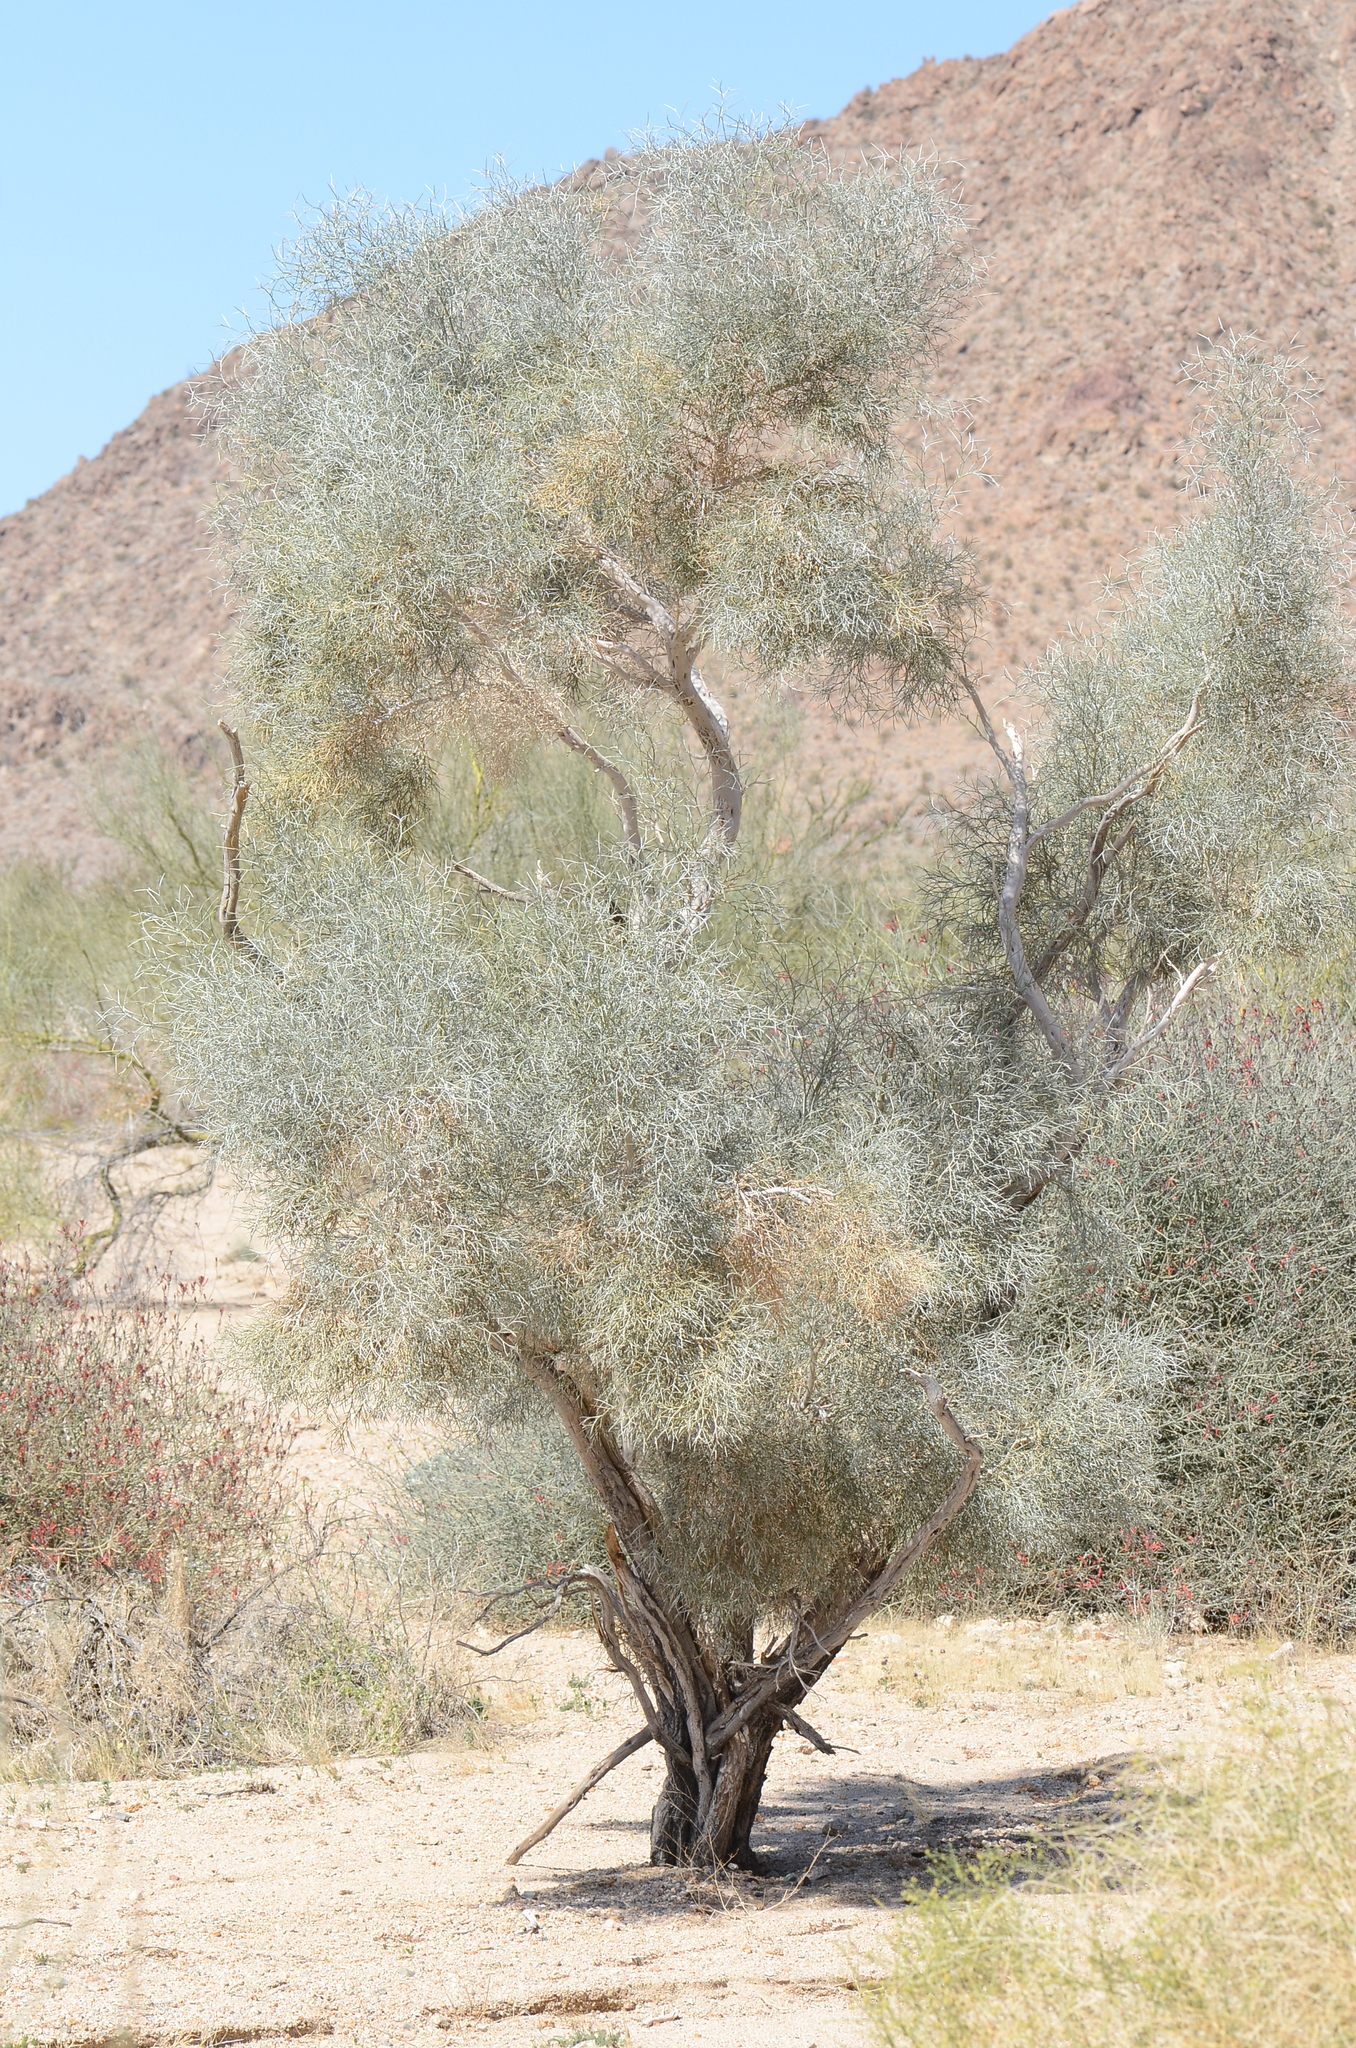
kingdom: Plantae
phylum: Tracheophyta
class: Magnoliopsida
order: Fabales
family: Fabaceae
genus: Psorothamnus
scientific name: Psorothamnus spinosus
